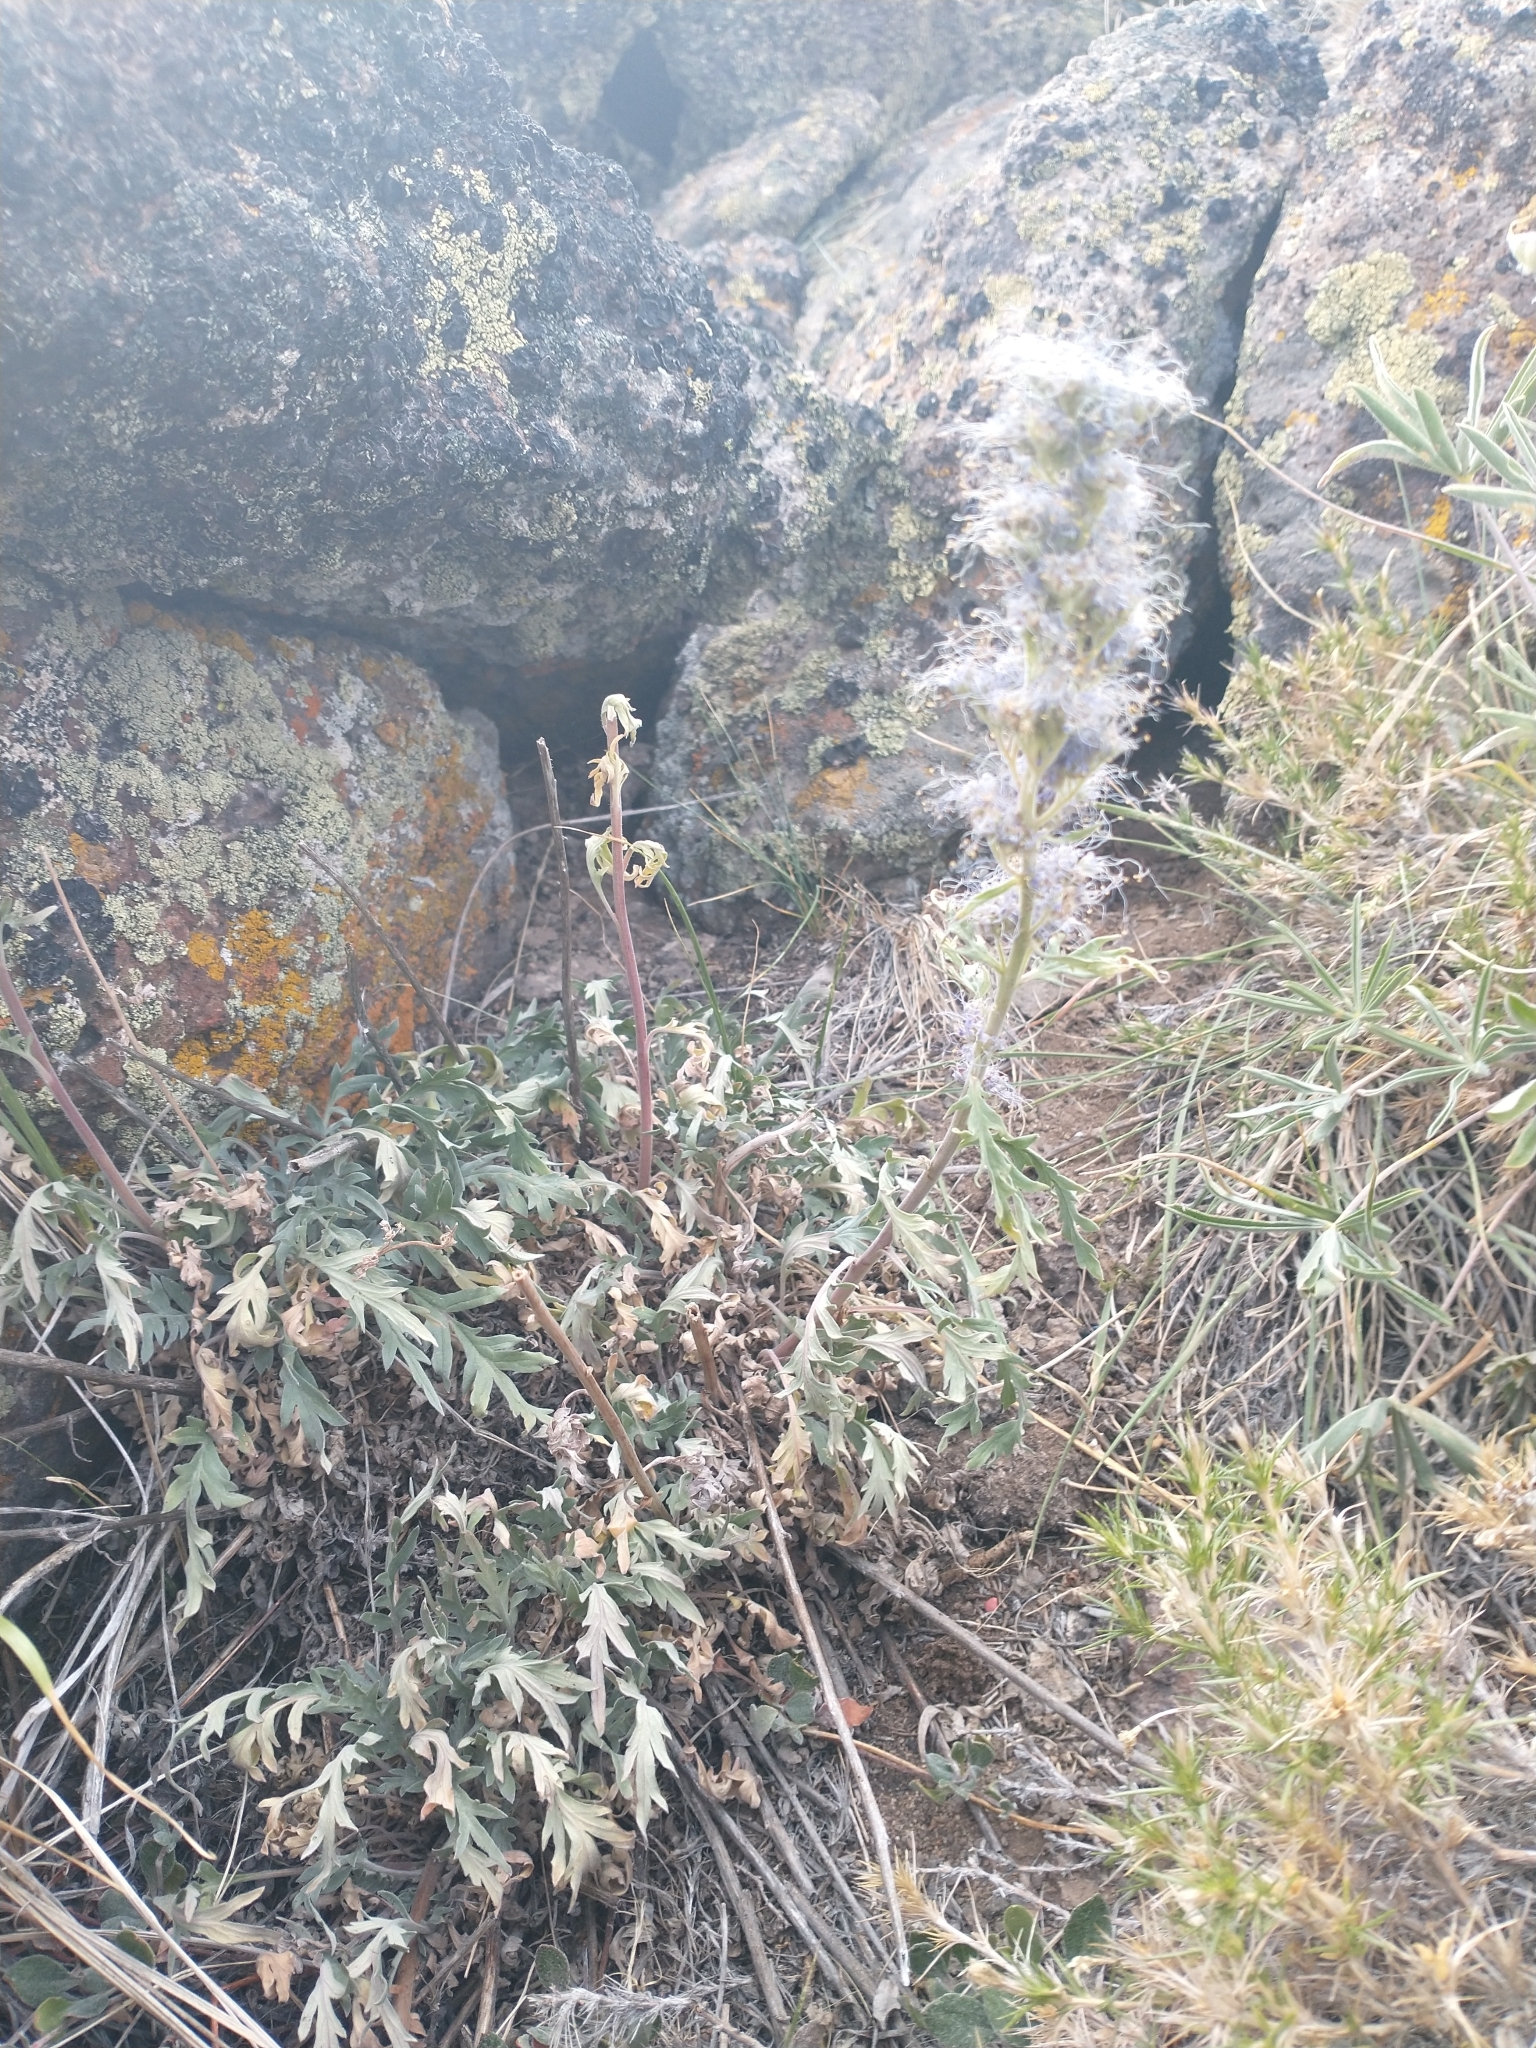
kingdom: Plantae
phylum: Tracheophyta
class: Magnoliopsida
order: Boraginales
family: Hydrophyllaceae
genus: Phacelia
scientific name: Phacelia sericea
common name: Silky phacelia
